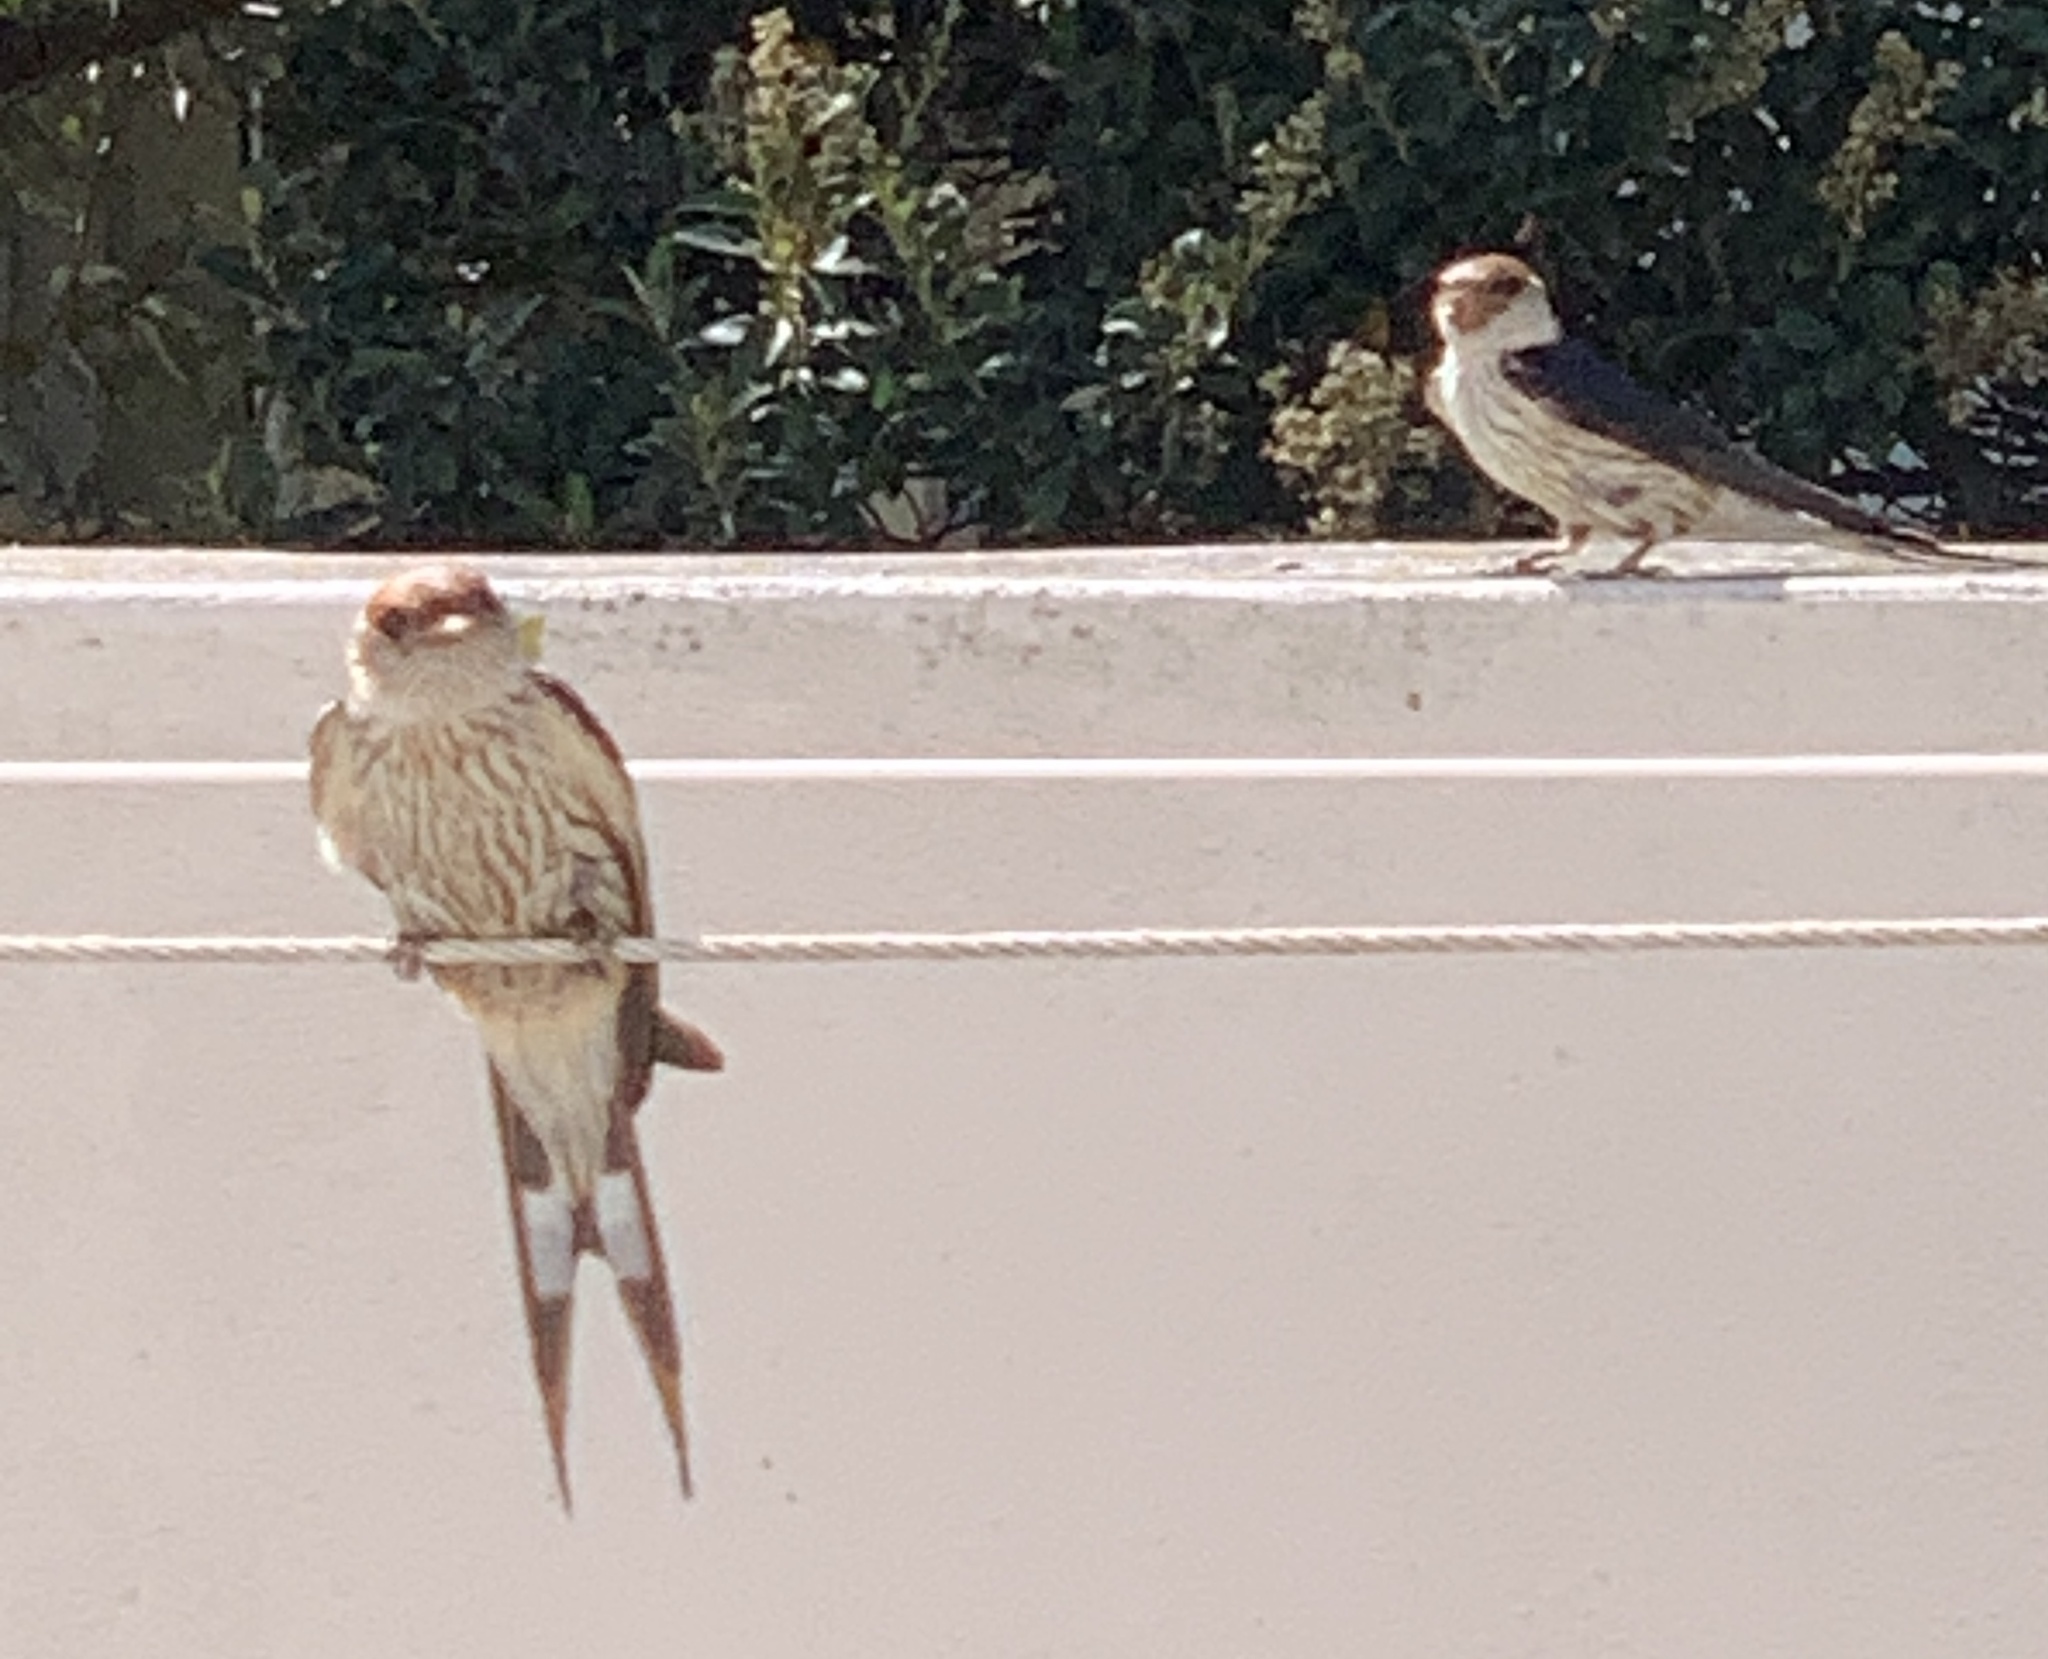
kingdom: Animalia
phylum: Chordata
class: Aves
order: Passeriformes
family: Hirundinidae
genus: Cecropis
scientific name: Cecropis cucullata
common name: Greater striped-swallow
